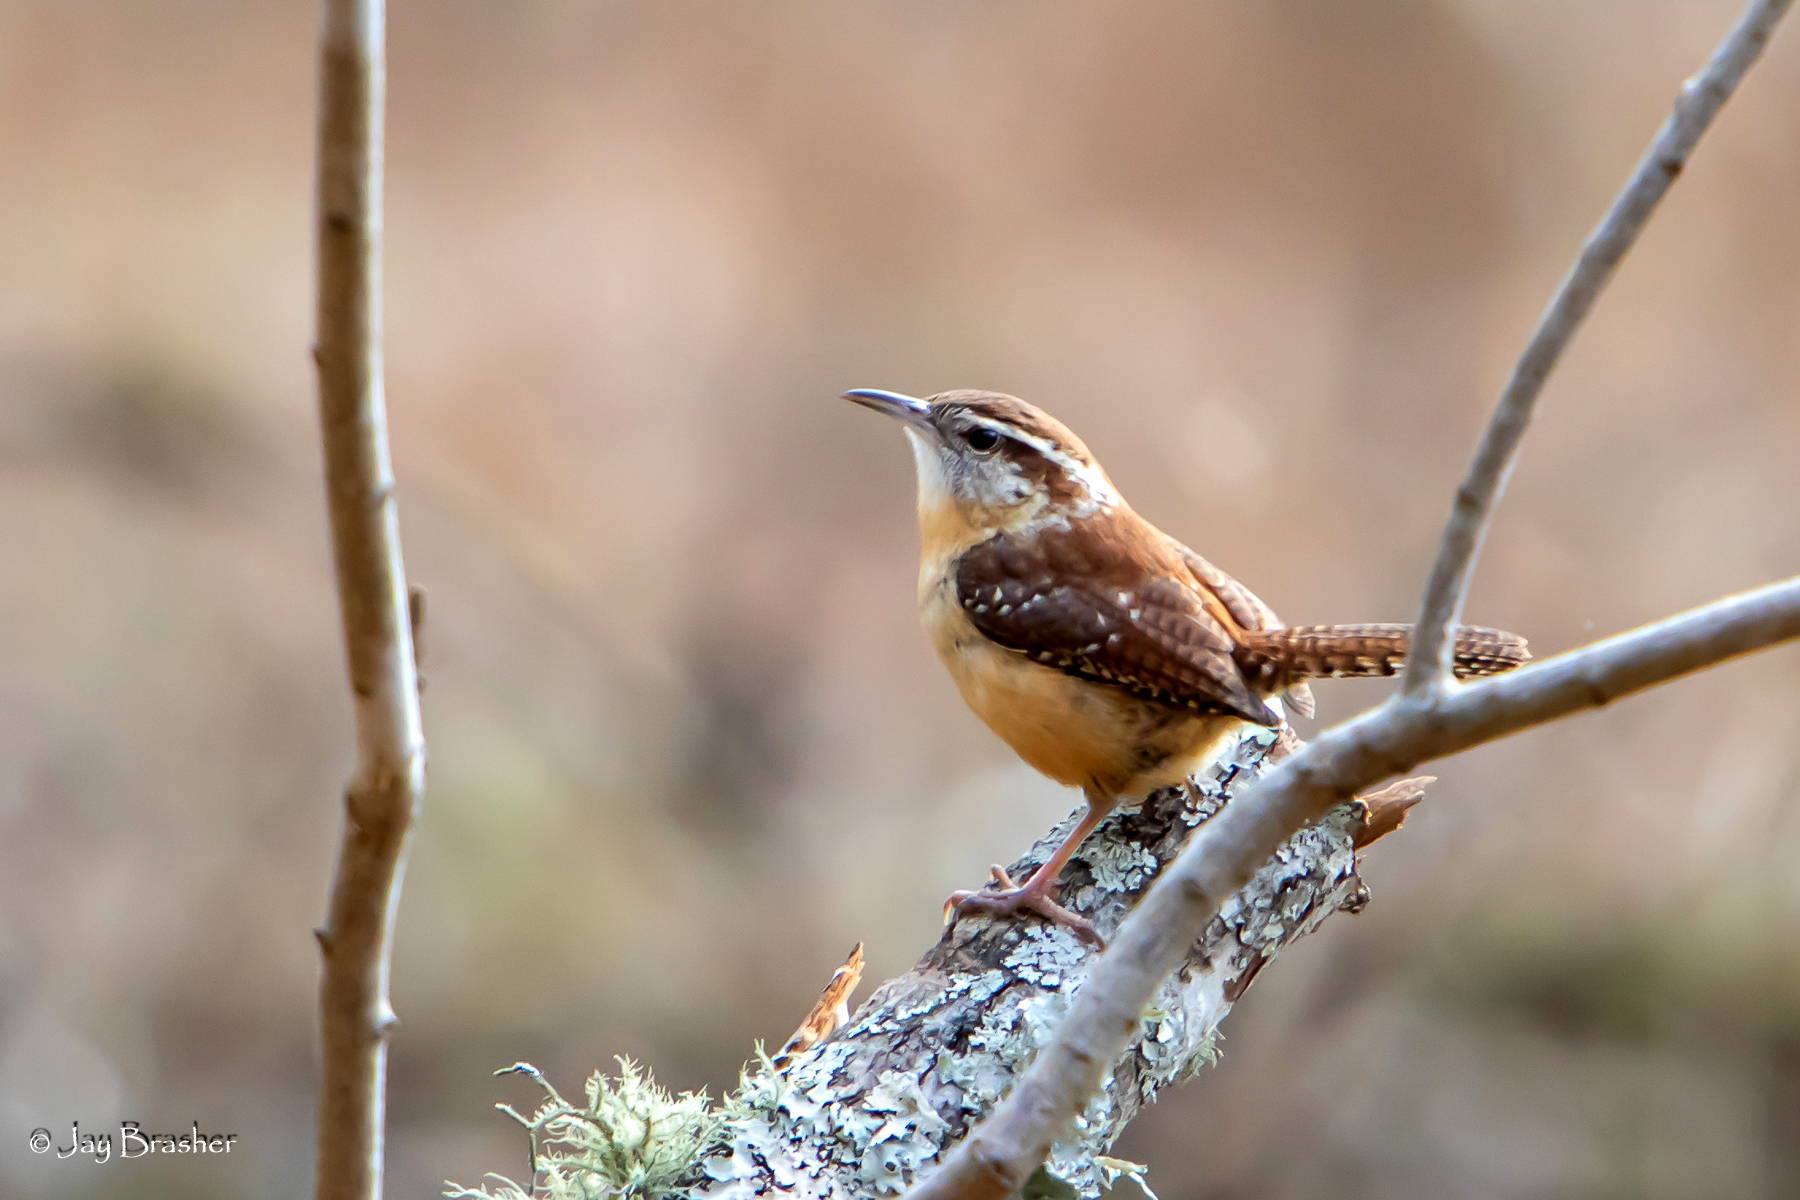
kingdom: Animalia
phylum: Chordata
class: Aves
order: Passeriformes
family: Troglodytidae
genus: Thryothorus
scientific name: Thryothorus ludovicianus
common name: Carolina wren
